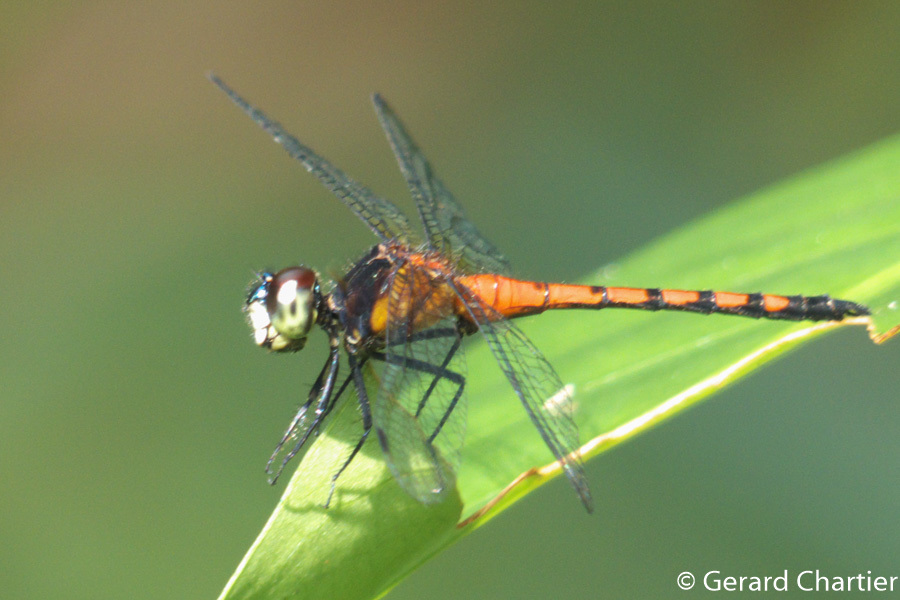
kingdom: Animalia
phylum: Arthropoda
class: Insecta
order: Odonata
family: Libellulidae
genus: Amphithemis
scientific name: Amphithemis curvistyla
